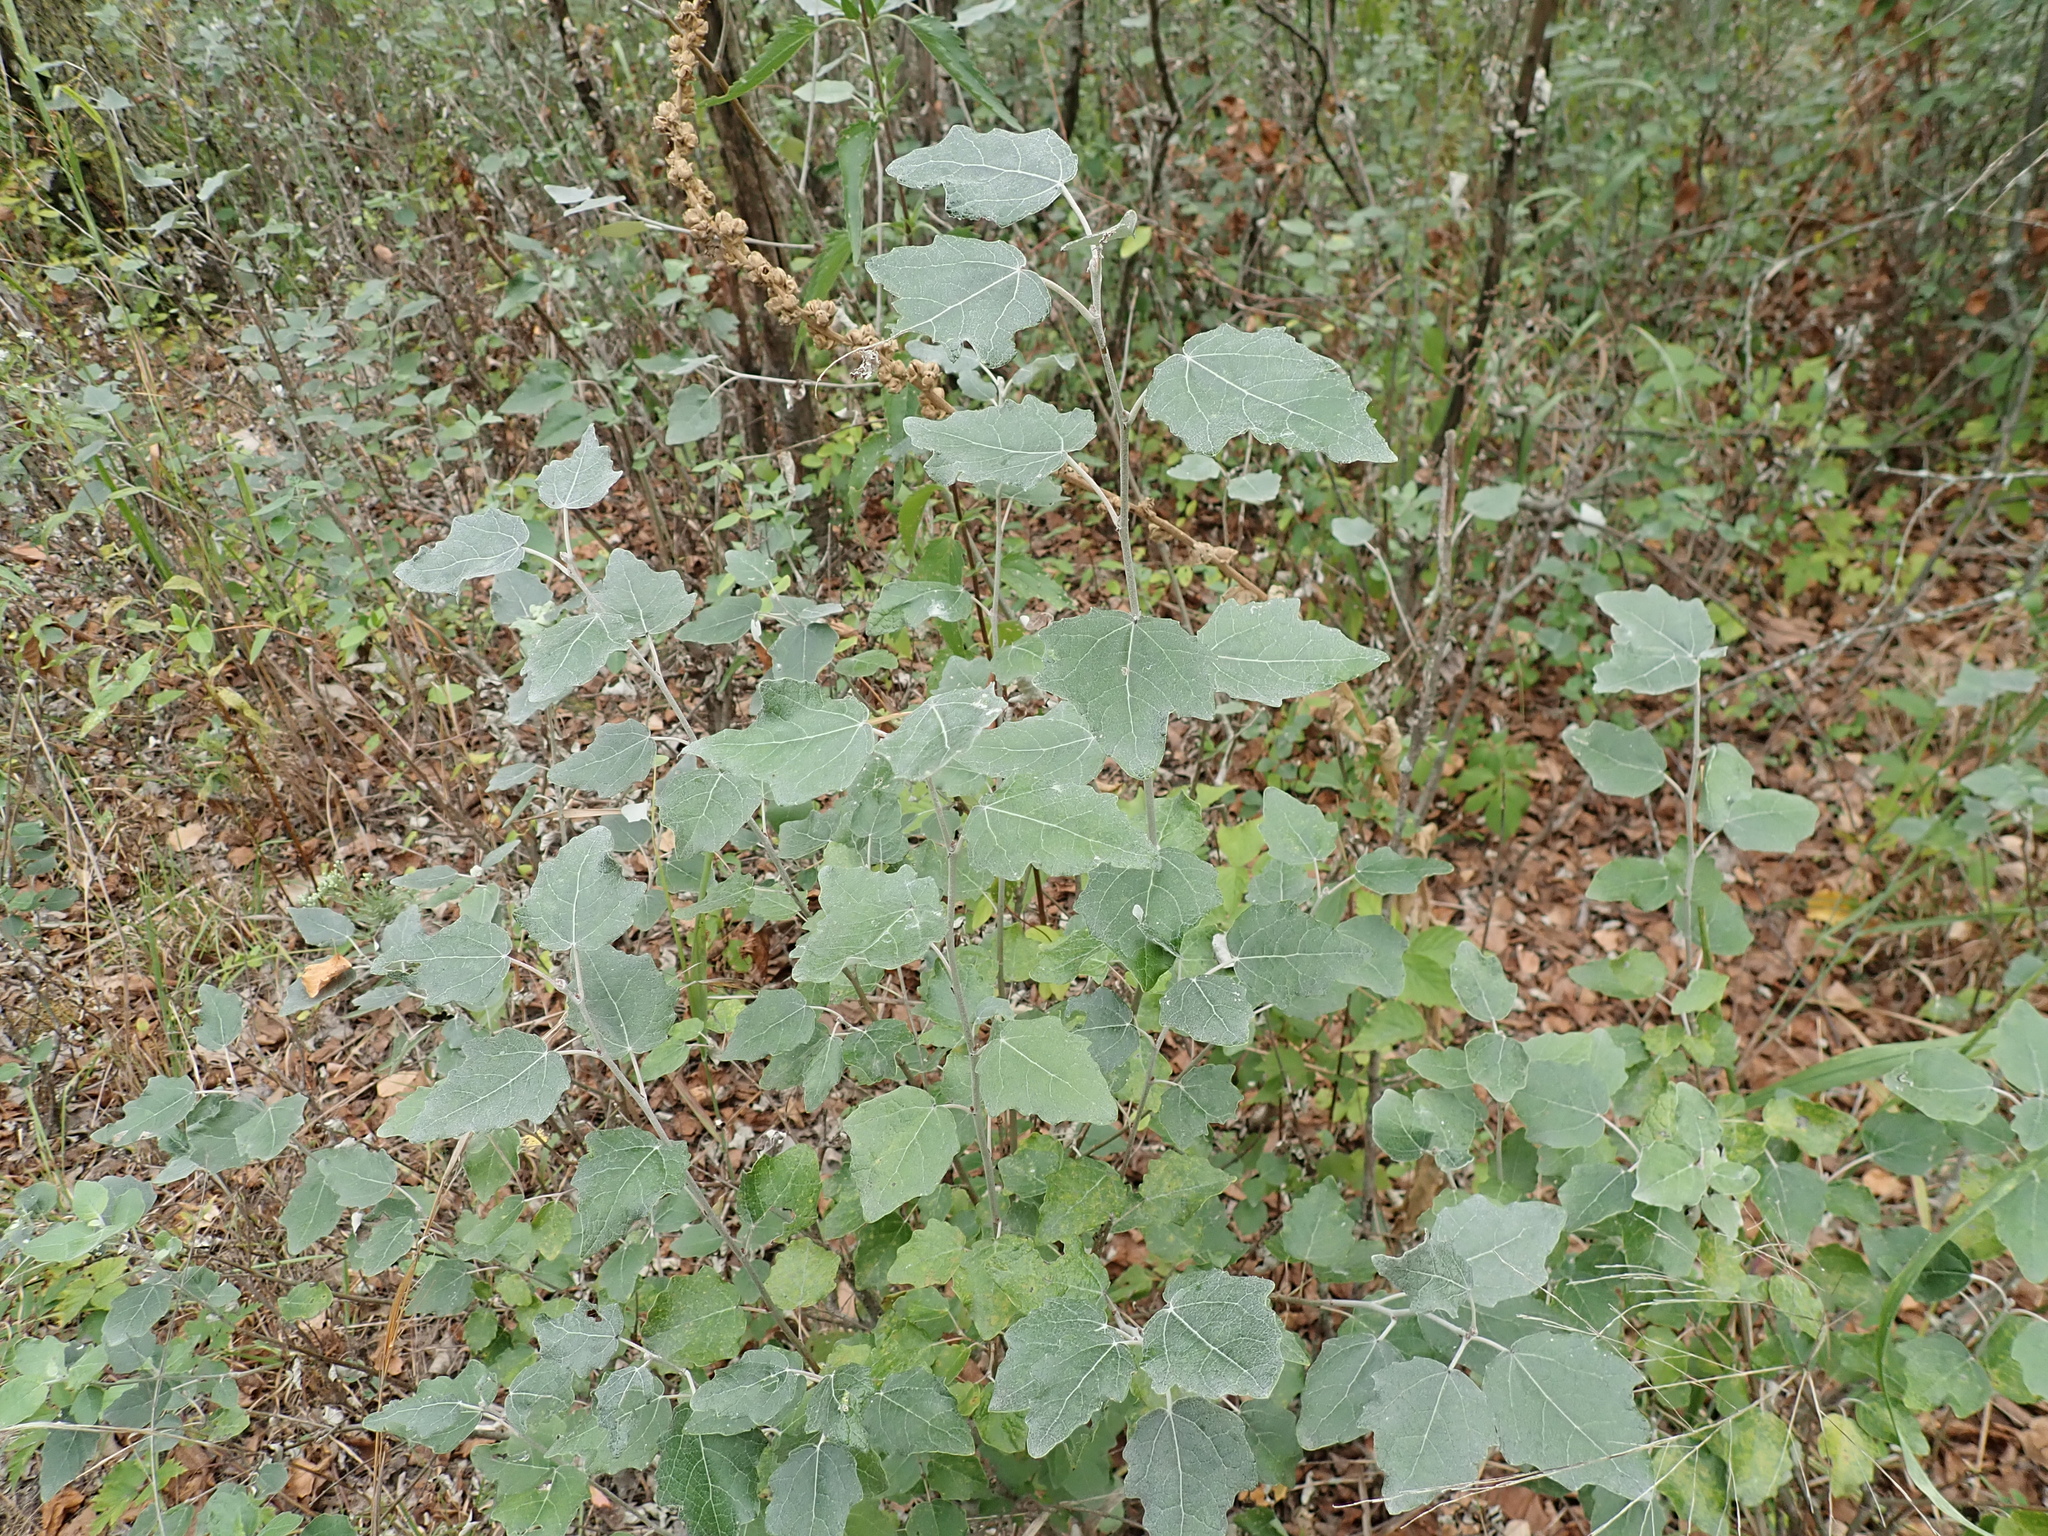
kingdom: Plantae
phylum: Tracheophyta
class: Magnoliopsida
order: Malpighiales
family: Salicaceae
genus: Populus
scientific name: Populus alba
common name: White poplar
